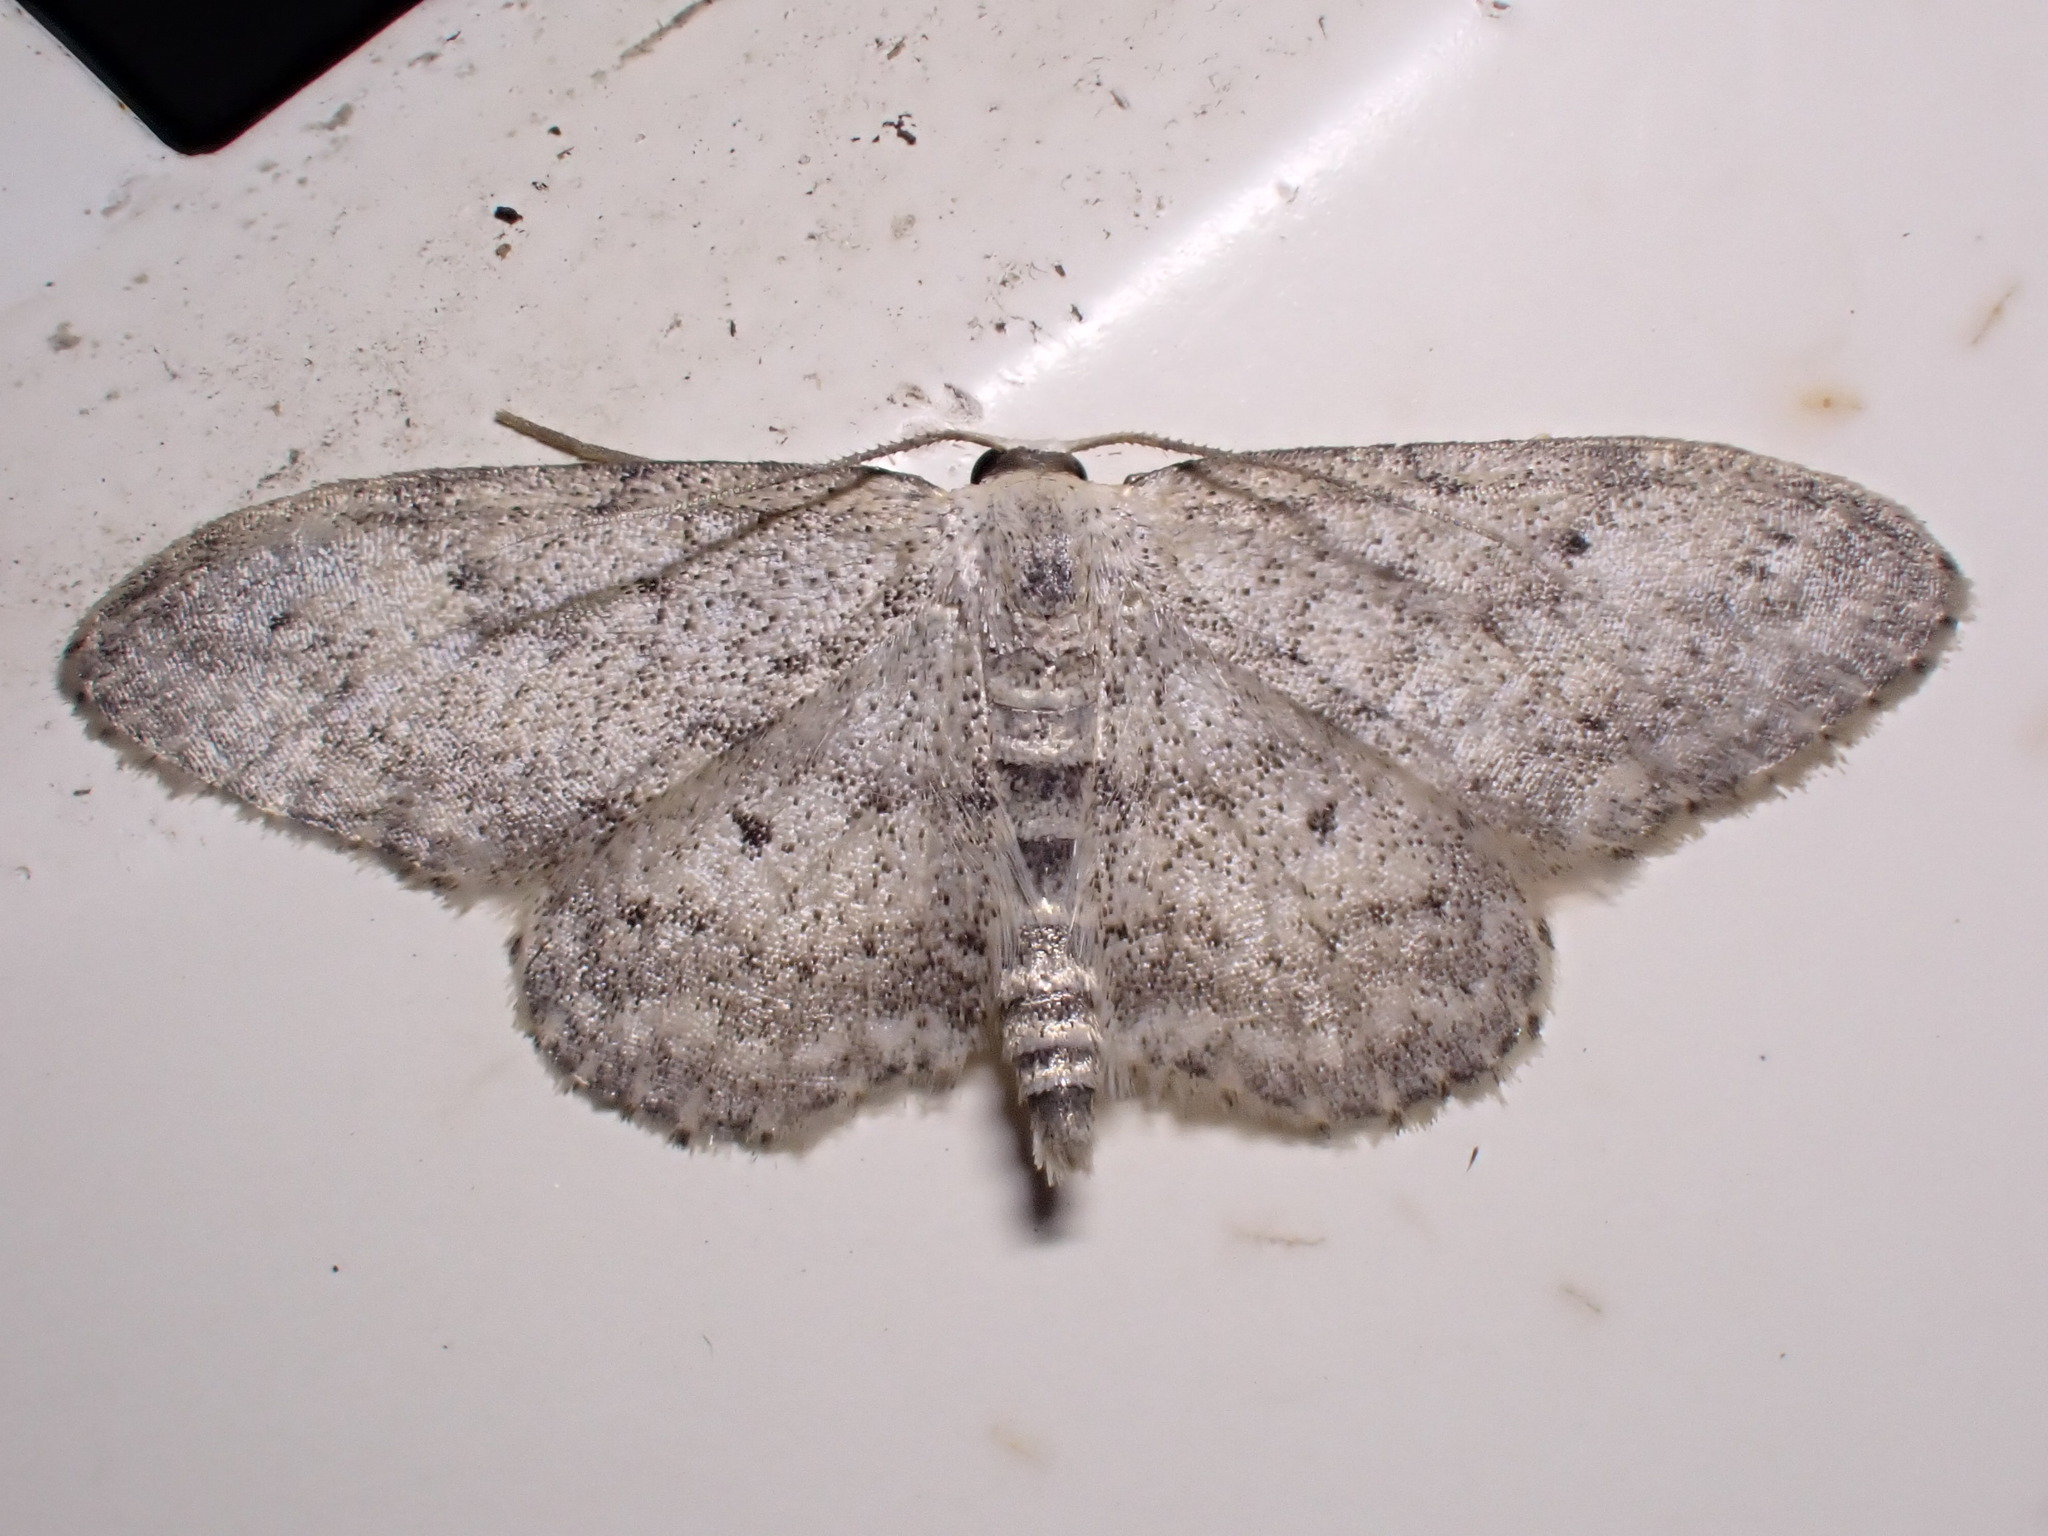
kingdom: Animalia
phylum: Arthropoda
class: Insecta
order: Lepidoptera
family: Geometridae
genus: Idaea
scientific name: Idaea seriata
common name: Small dusty wave
